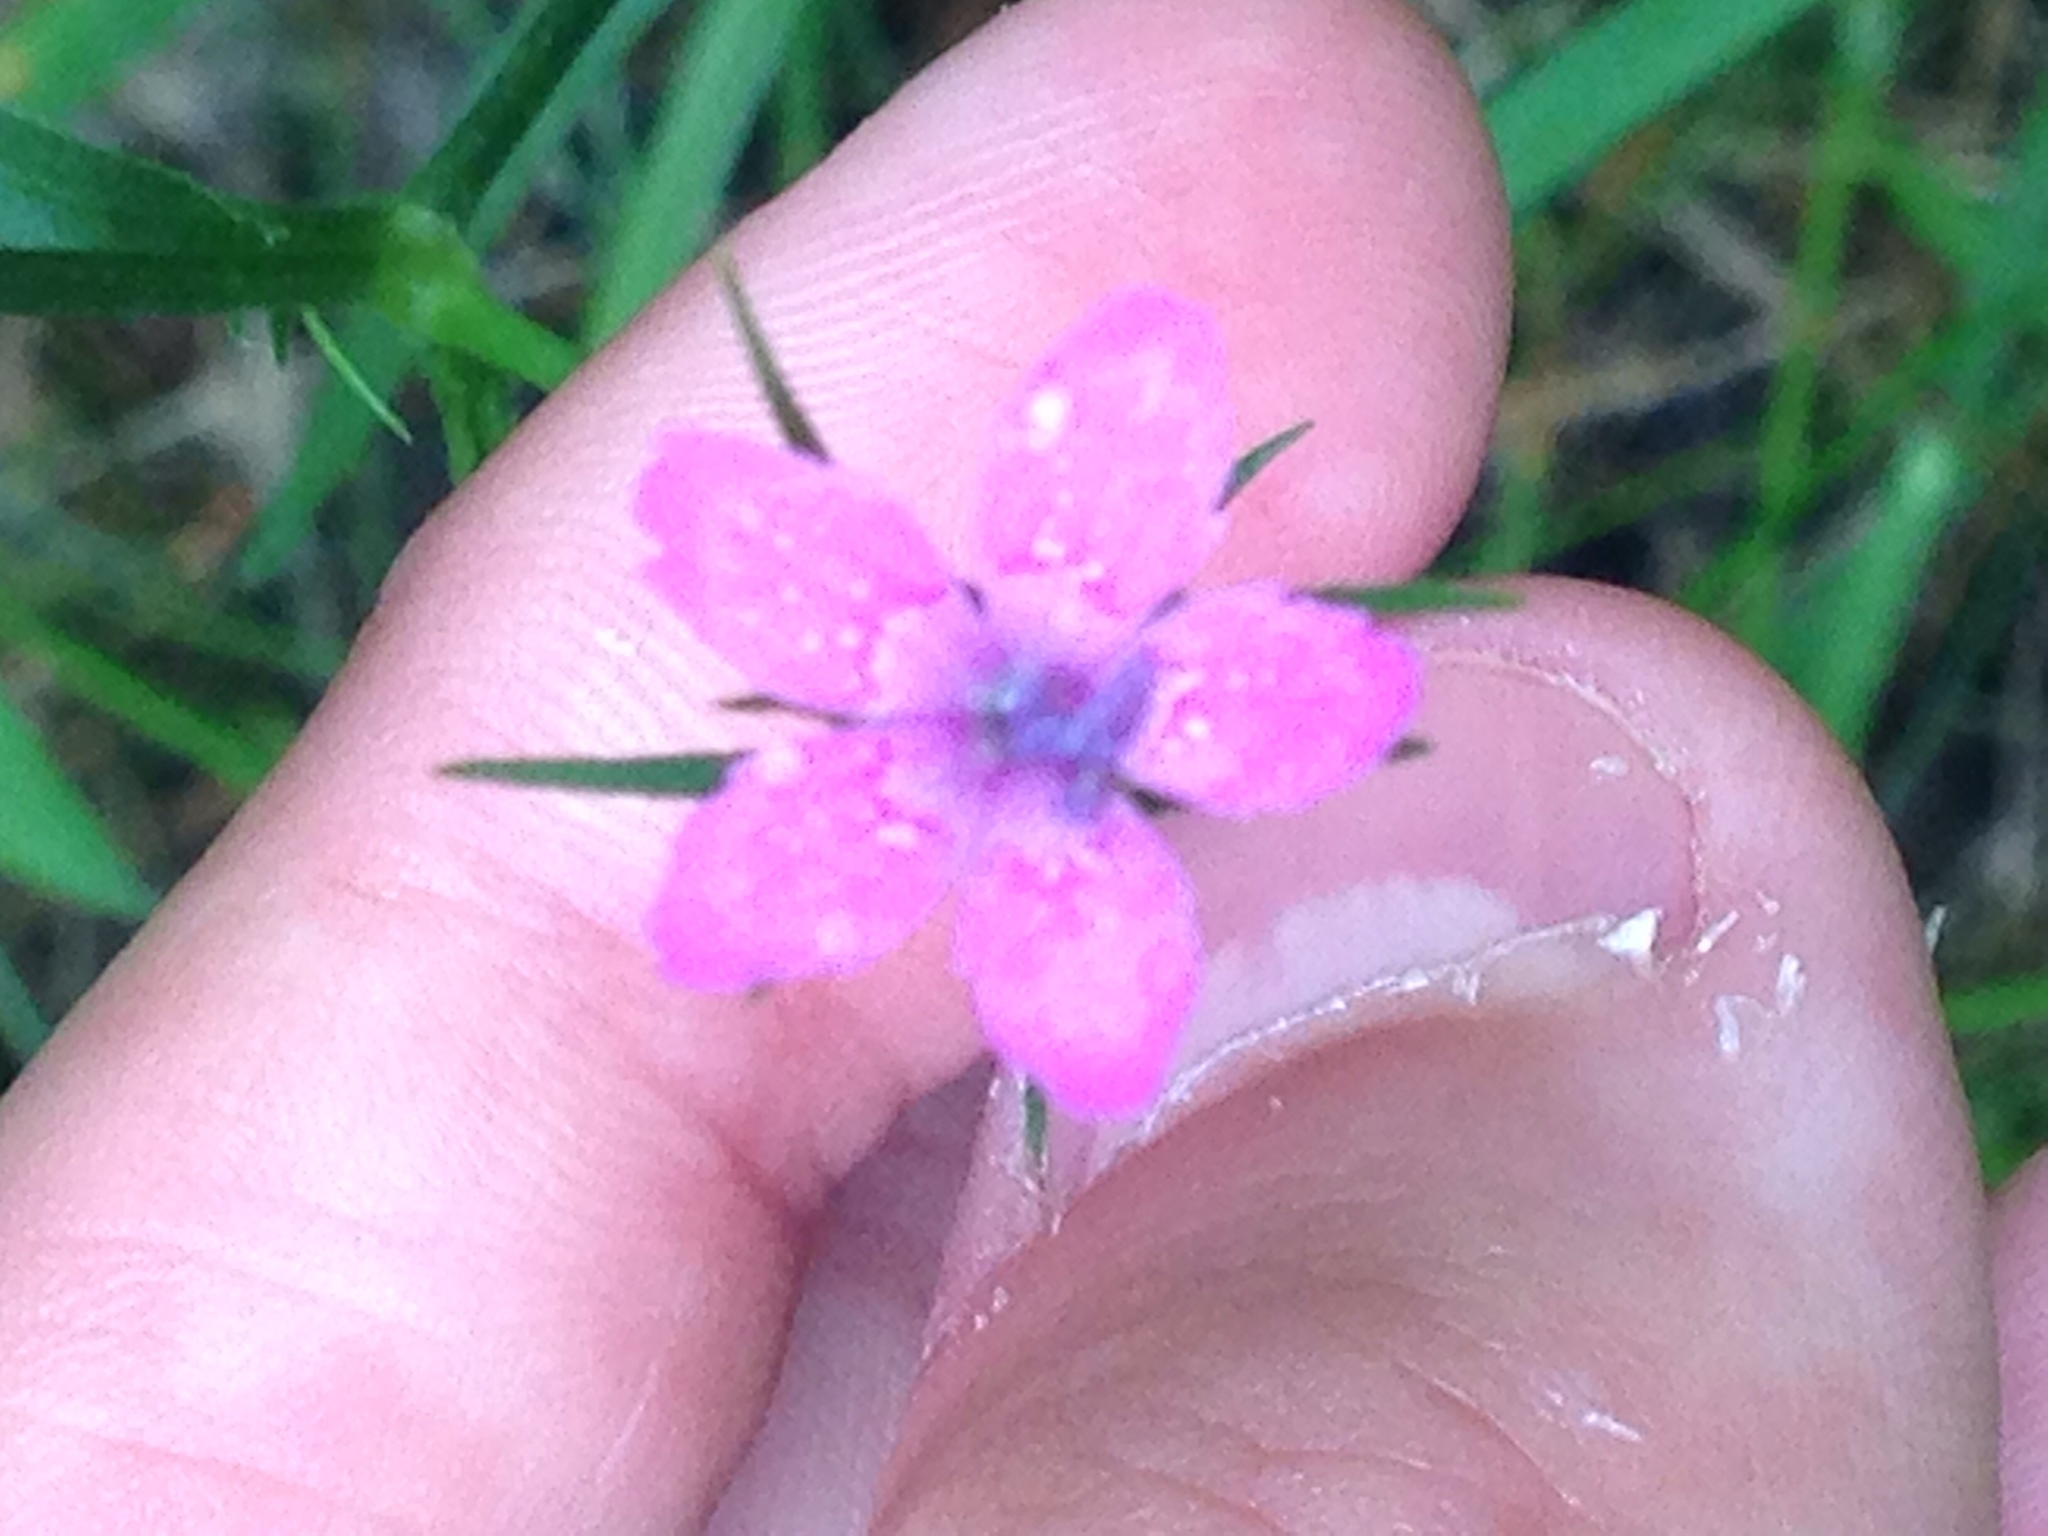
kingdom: Plantae
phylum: Tracheophyta
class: Magnoliopsida
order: Caryophyllales
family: Caryophyllaceae
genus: Dianthus
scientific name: Dianthus armeria
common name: Deptford pink
